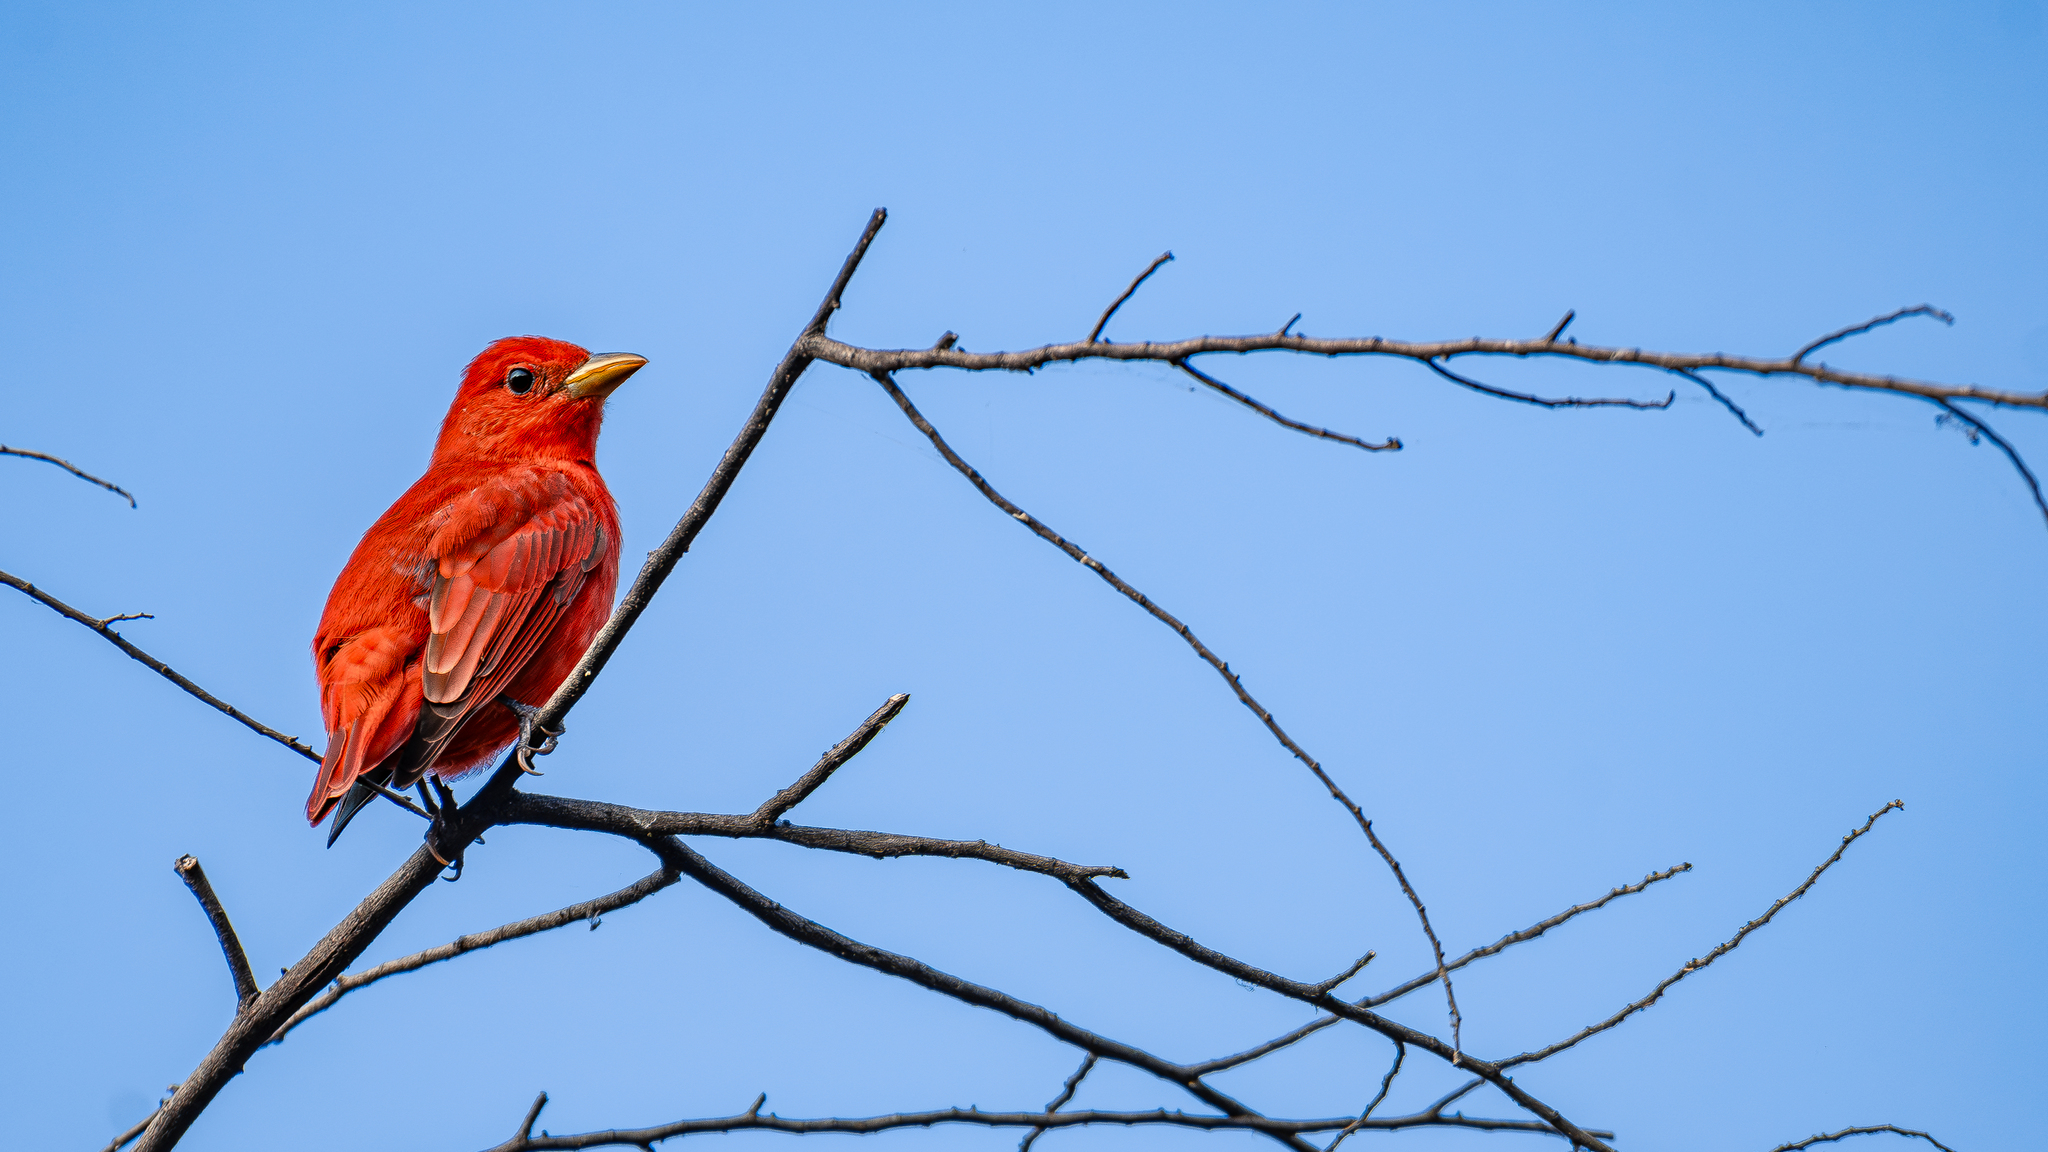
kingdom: Animalia
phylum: Chordata
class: Aves
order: Passeriformes
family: Cardinalidae
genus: Piranga
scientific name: Piranga rubra
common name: Summer tanager
